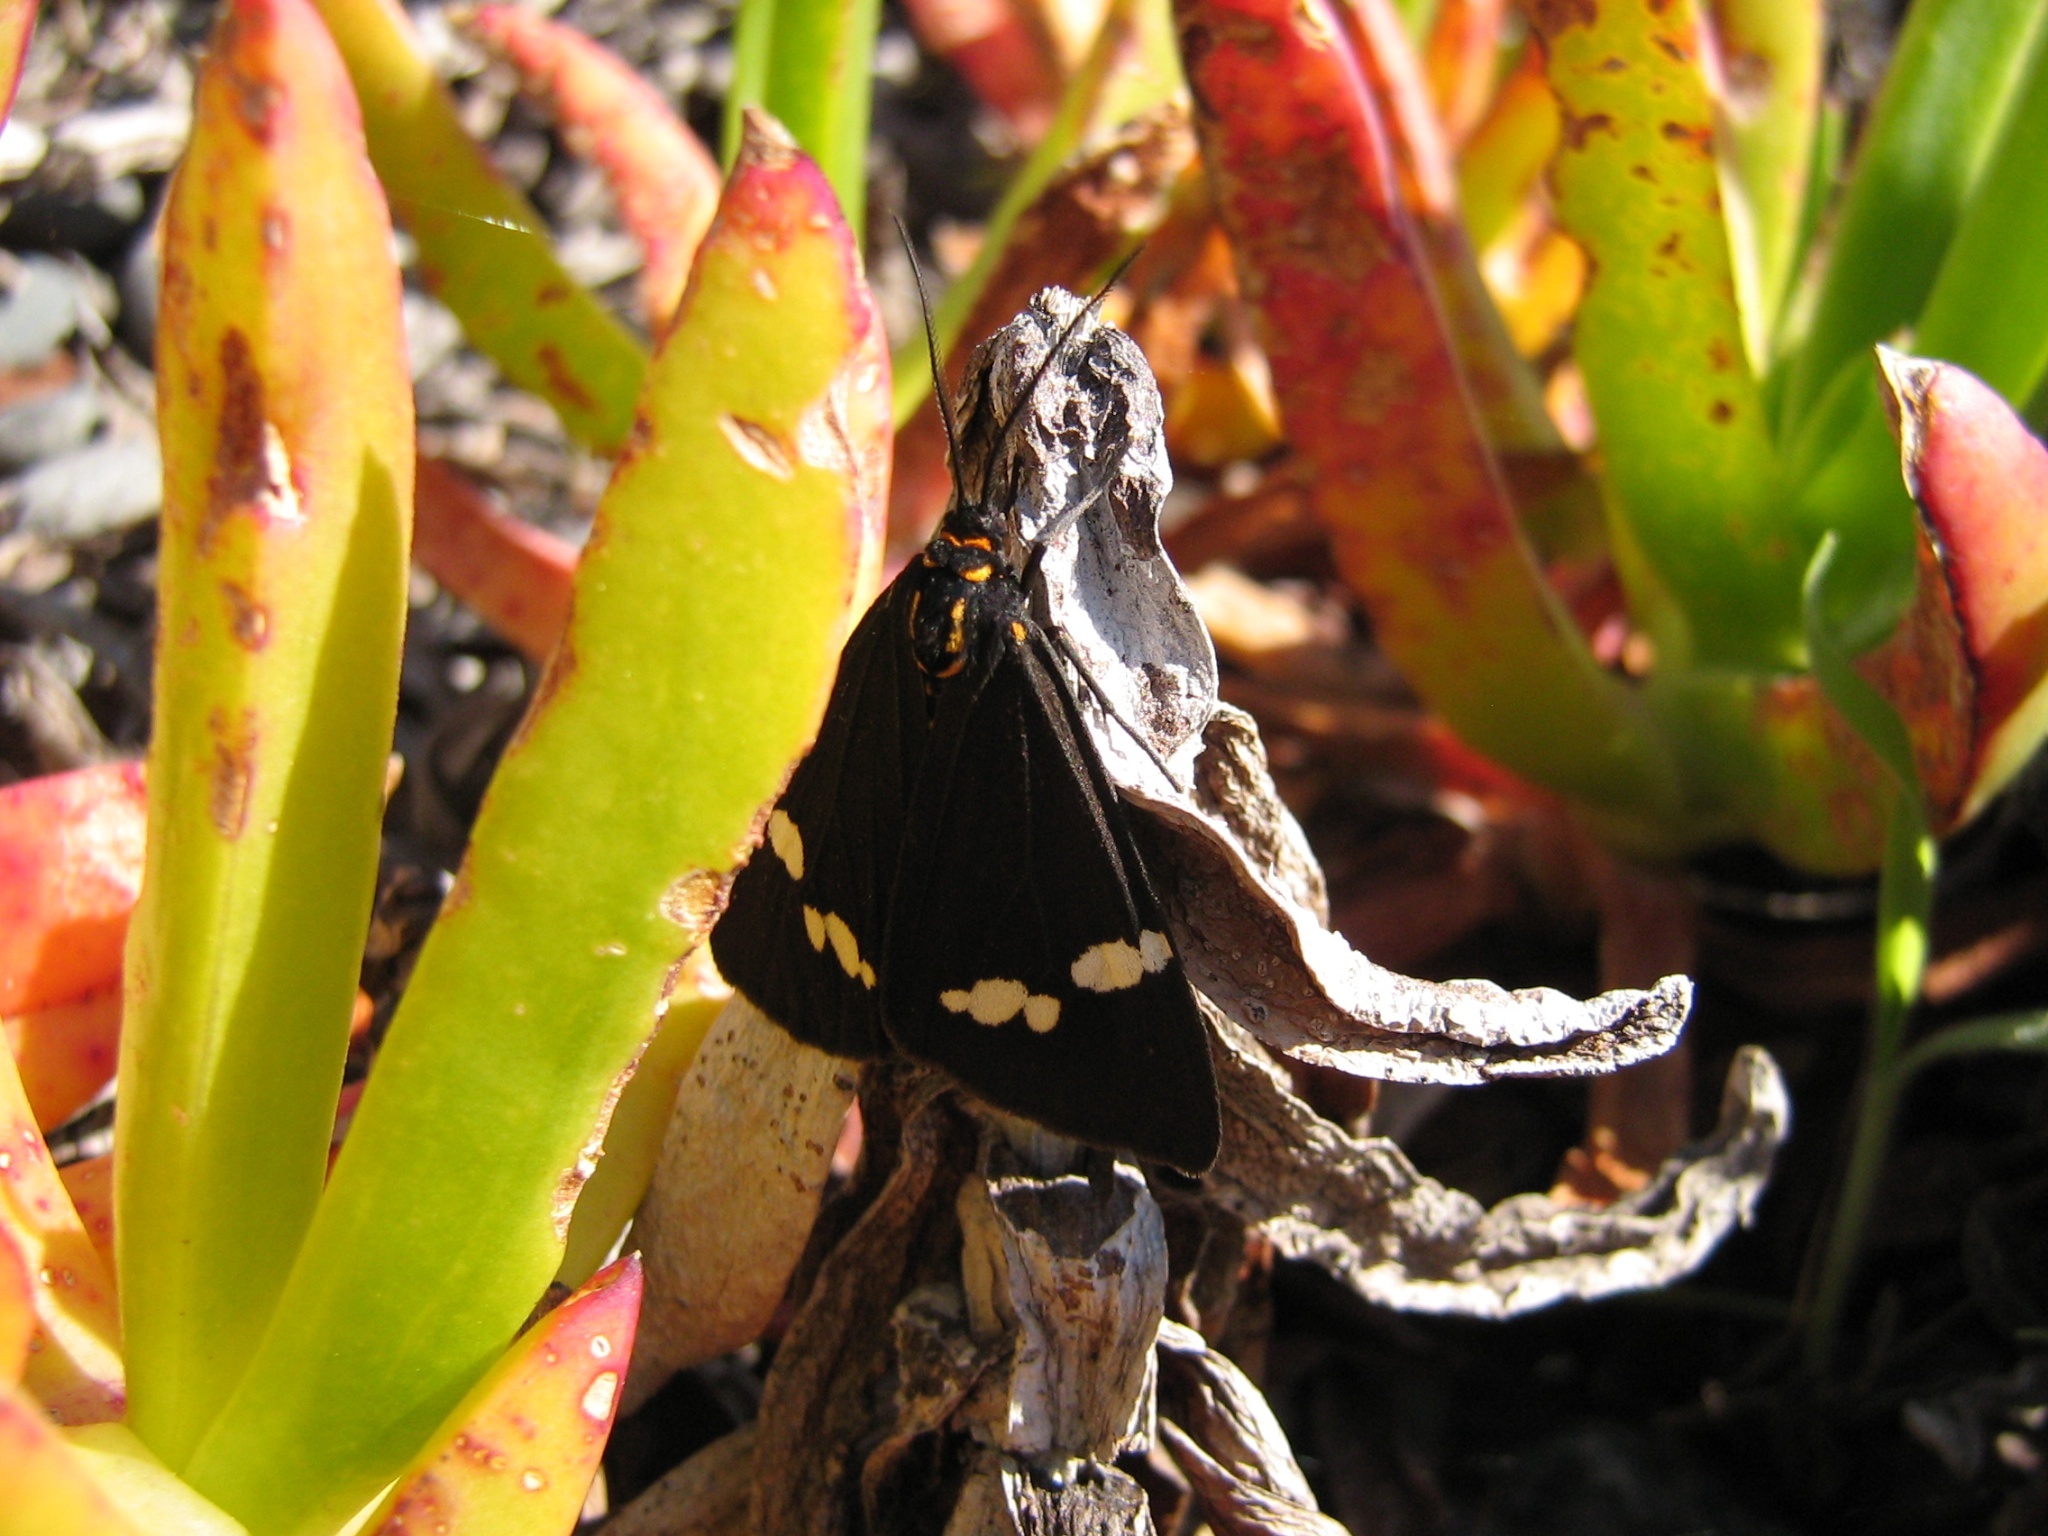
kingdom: Animalia
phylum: Arthropoda
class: Insecta
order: Lepidoptera
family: Erebidae
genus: Nyctemera
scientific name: Nyctemera annulatum
